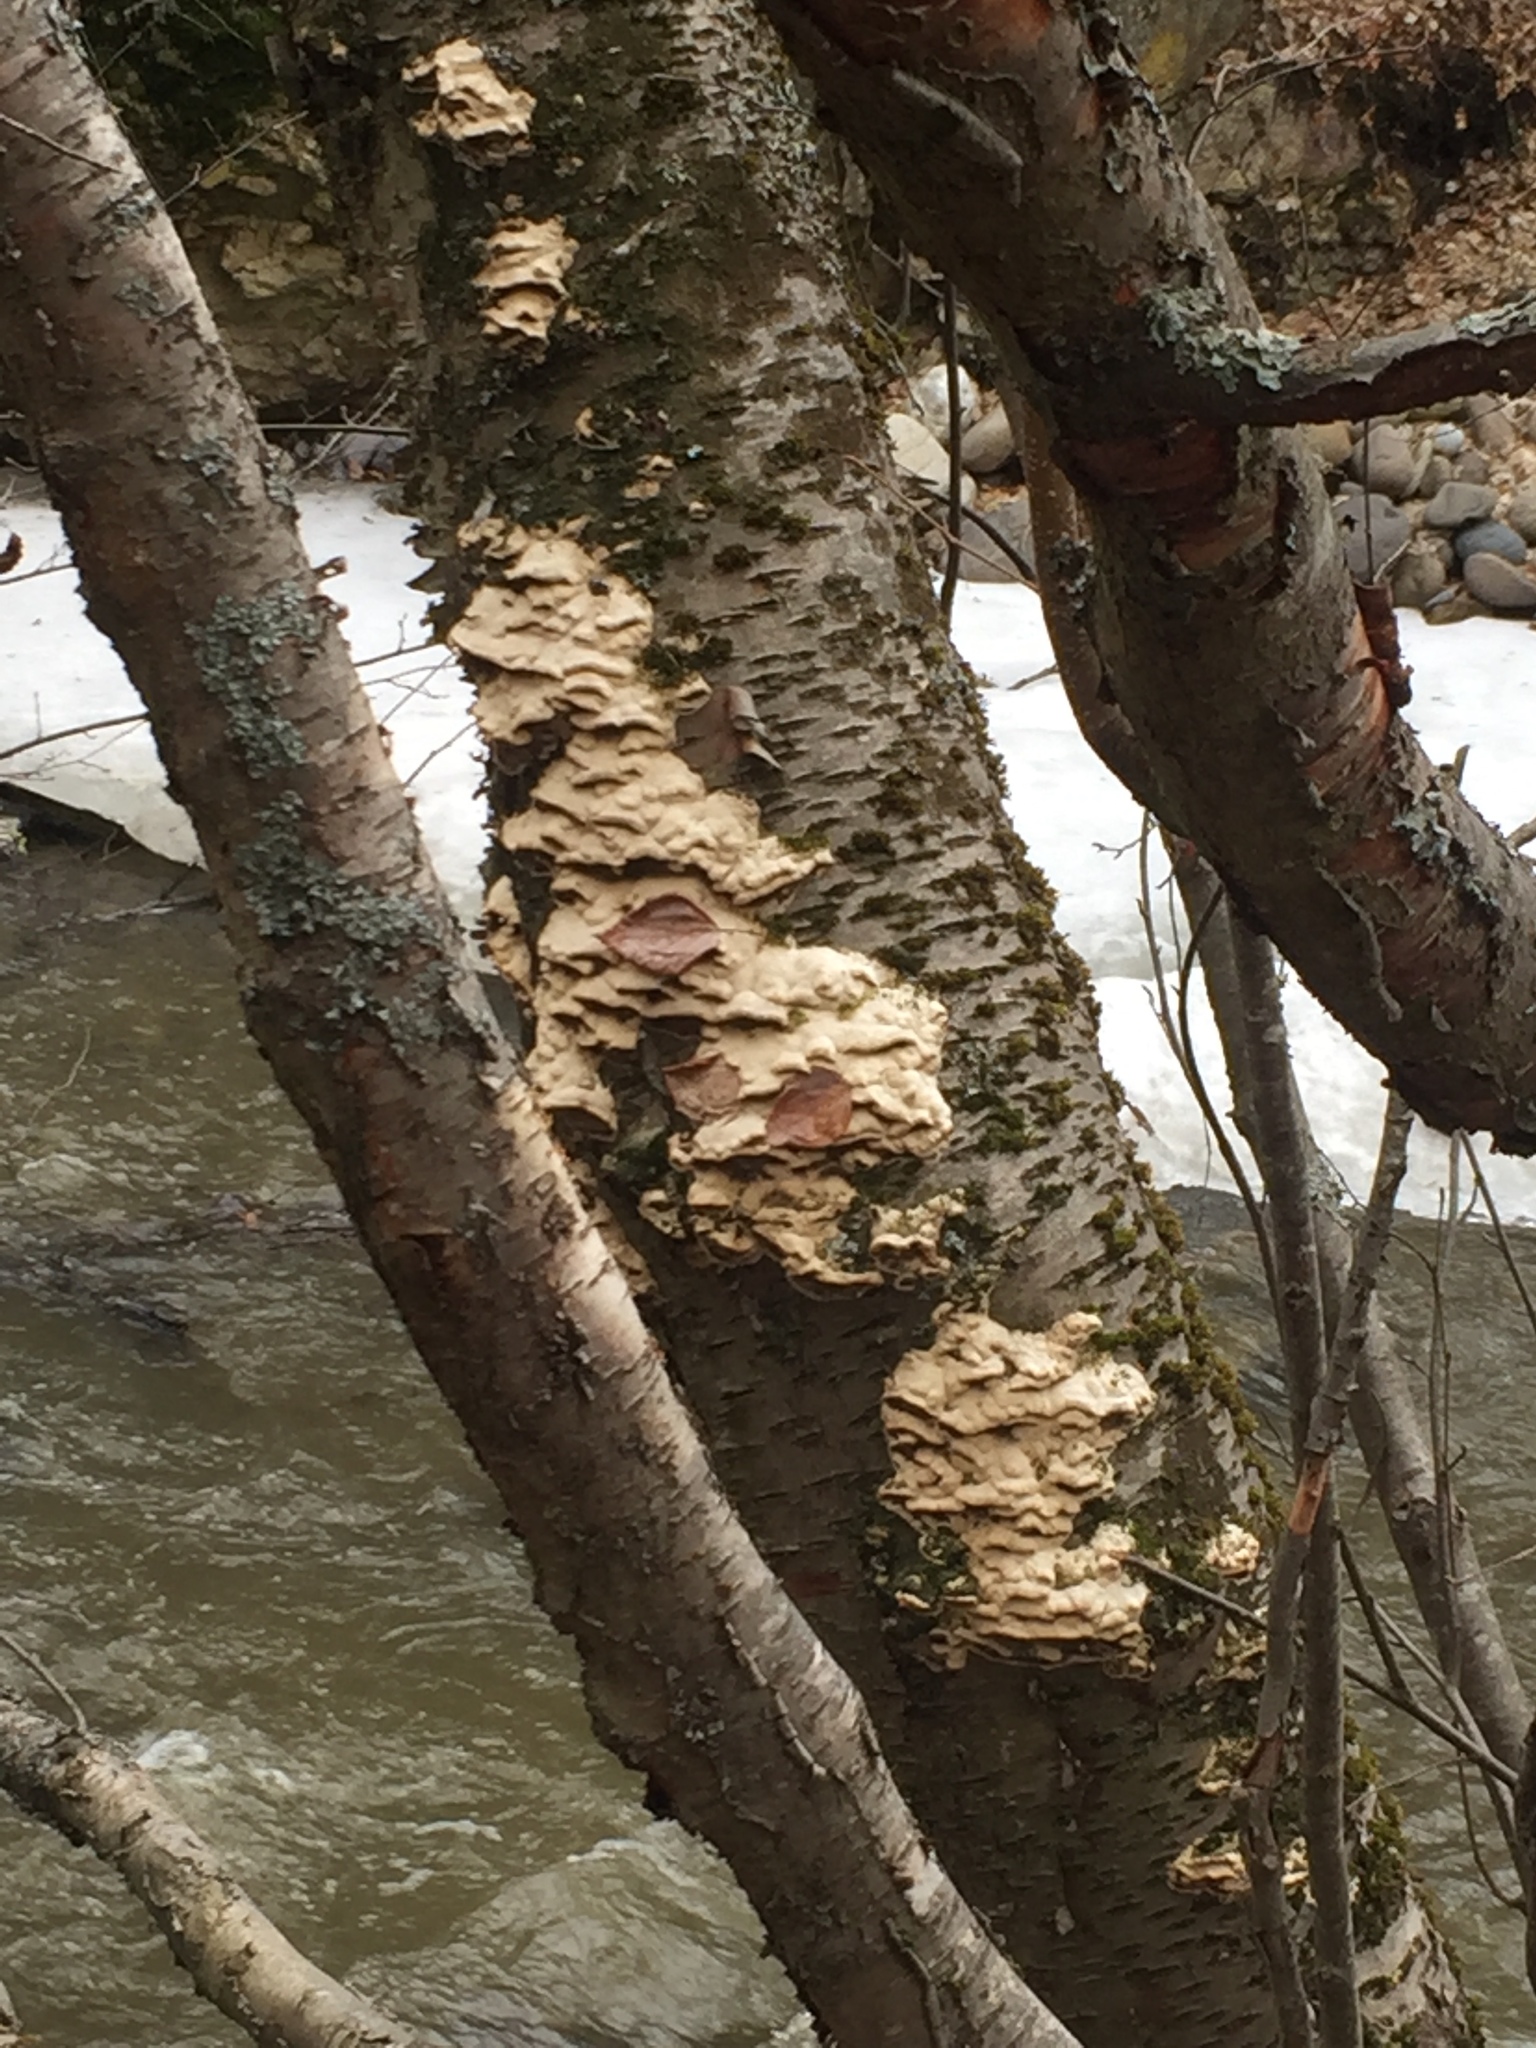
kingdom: Fungi
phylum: Basidiomycota
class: Agaricomycetes
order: Polyporales
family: Phanerochaetaceae
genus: Bjerkandera
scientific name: Bjerkandera adusta
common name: Smoky bracket
